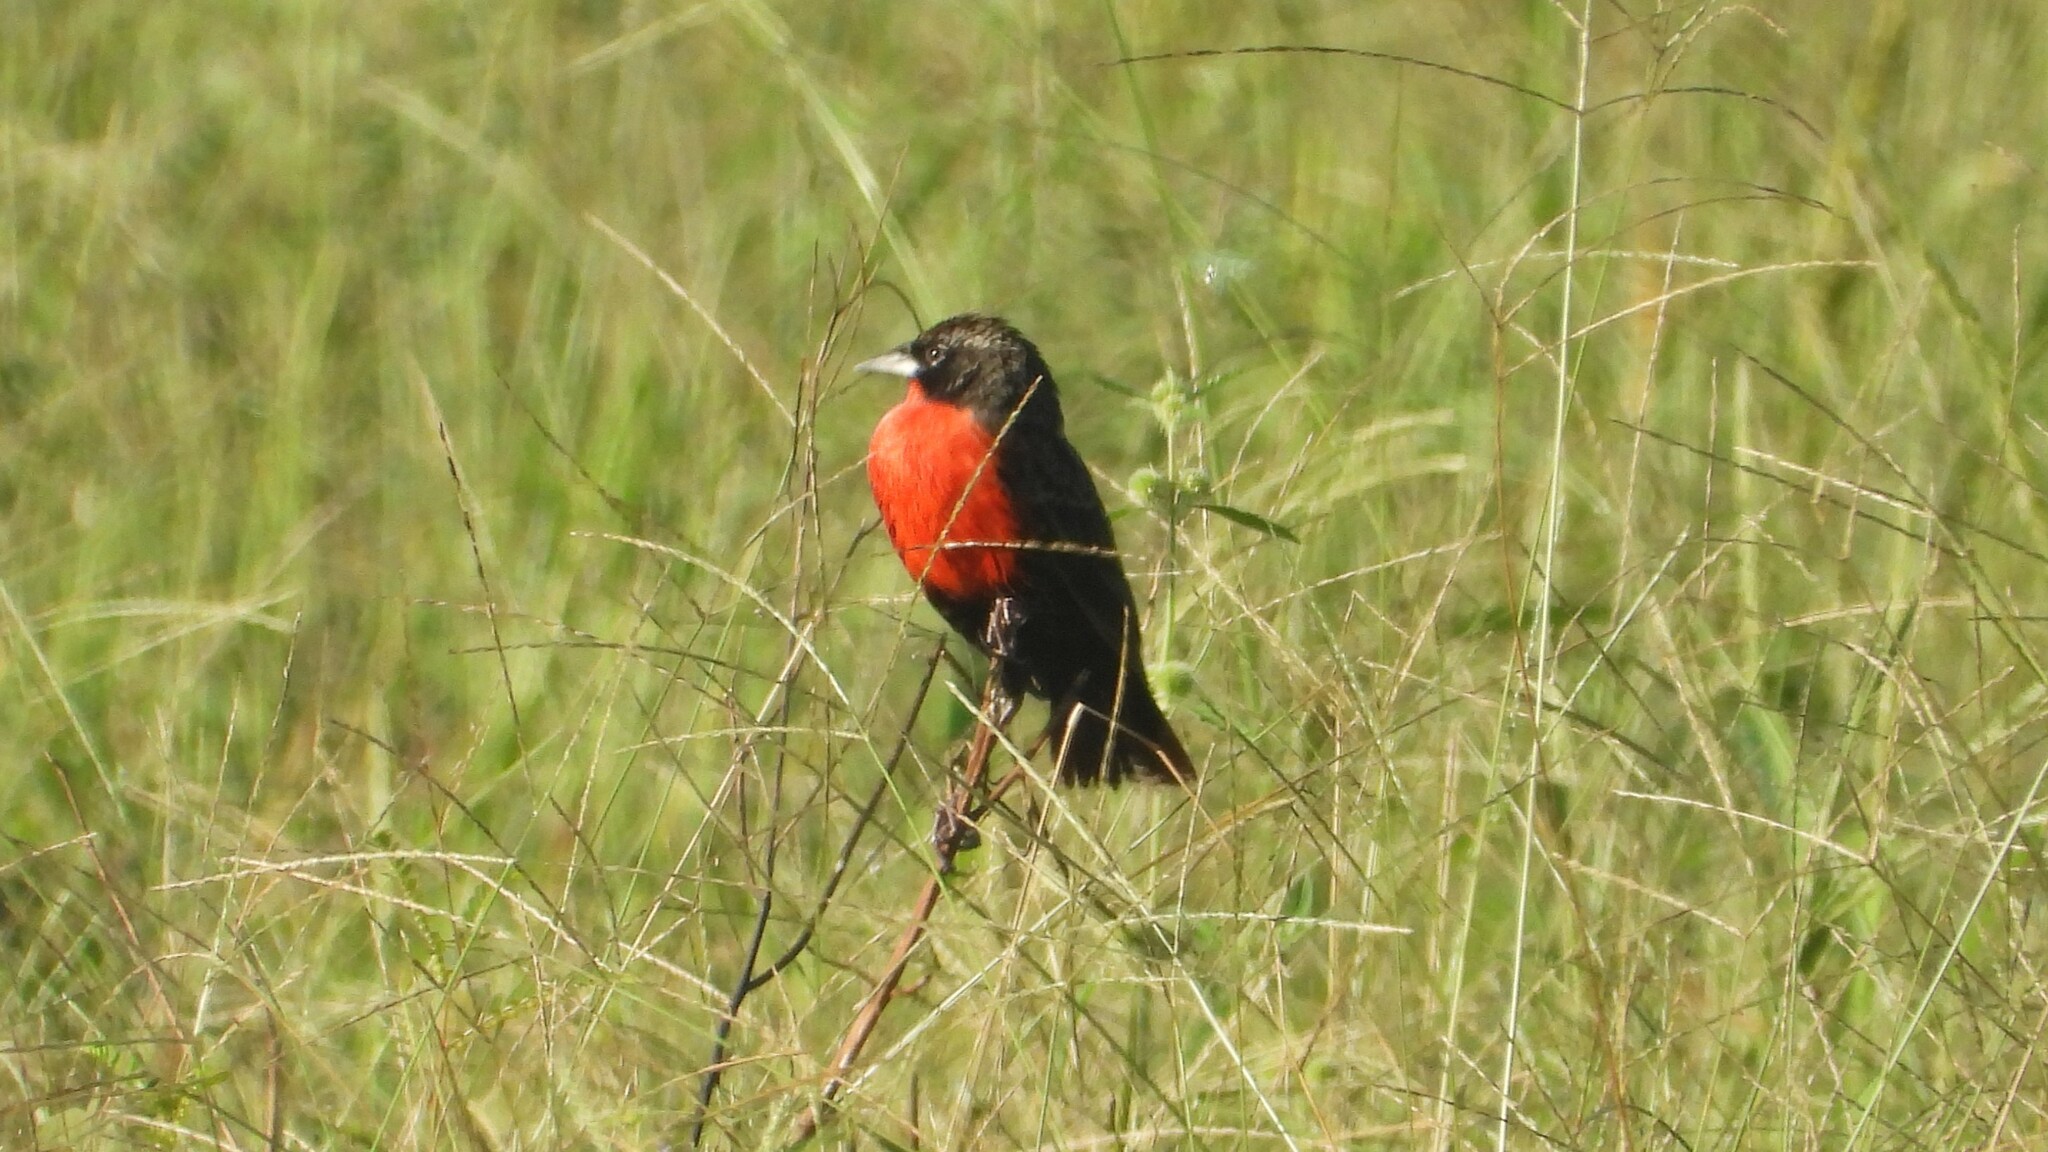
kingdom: Animalia
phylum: Chordata
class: Aves
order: Passeriformes
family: Icteridae
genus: Sturnella
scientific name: Sturnella militaris
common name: Red-breasted blackbird
